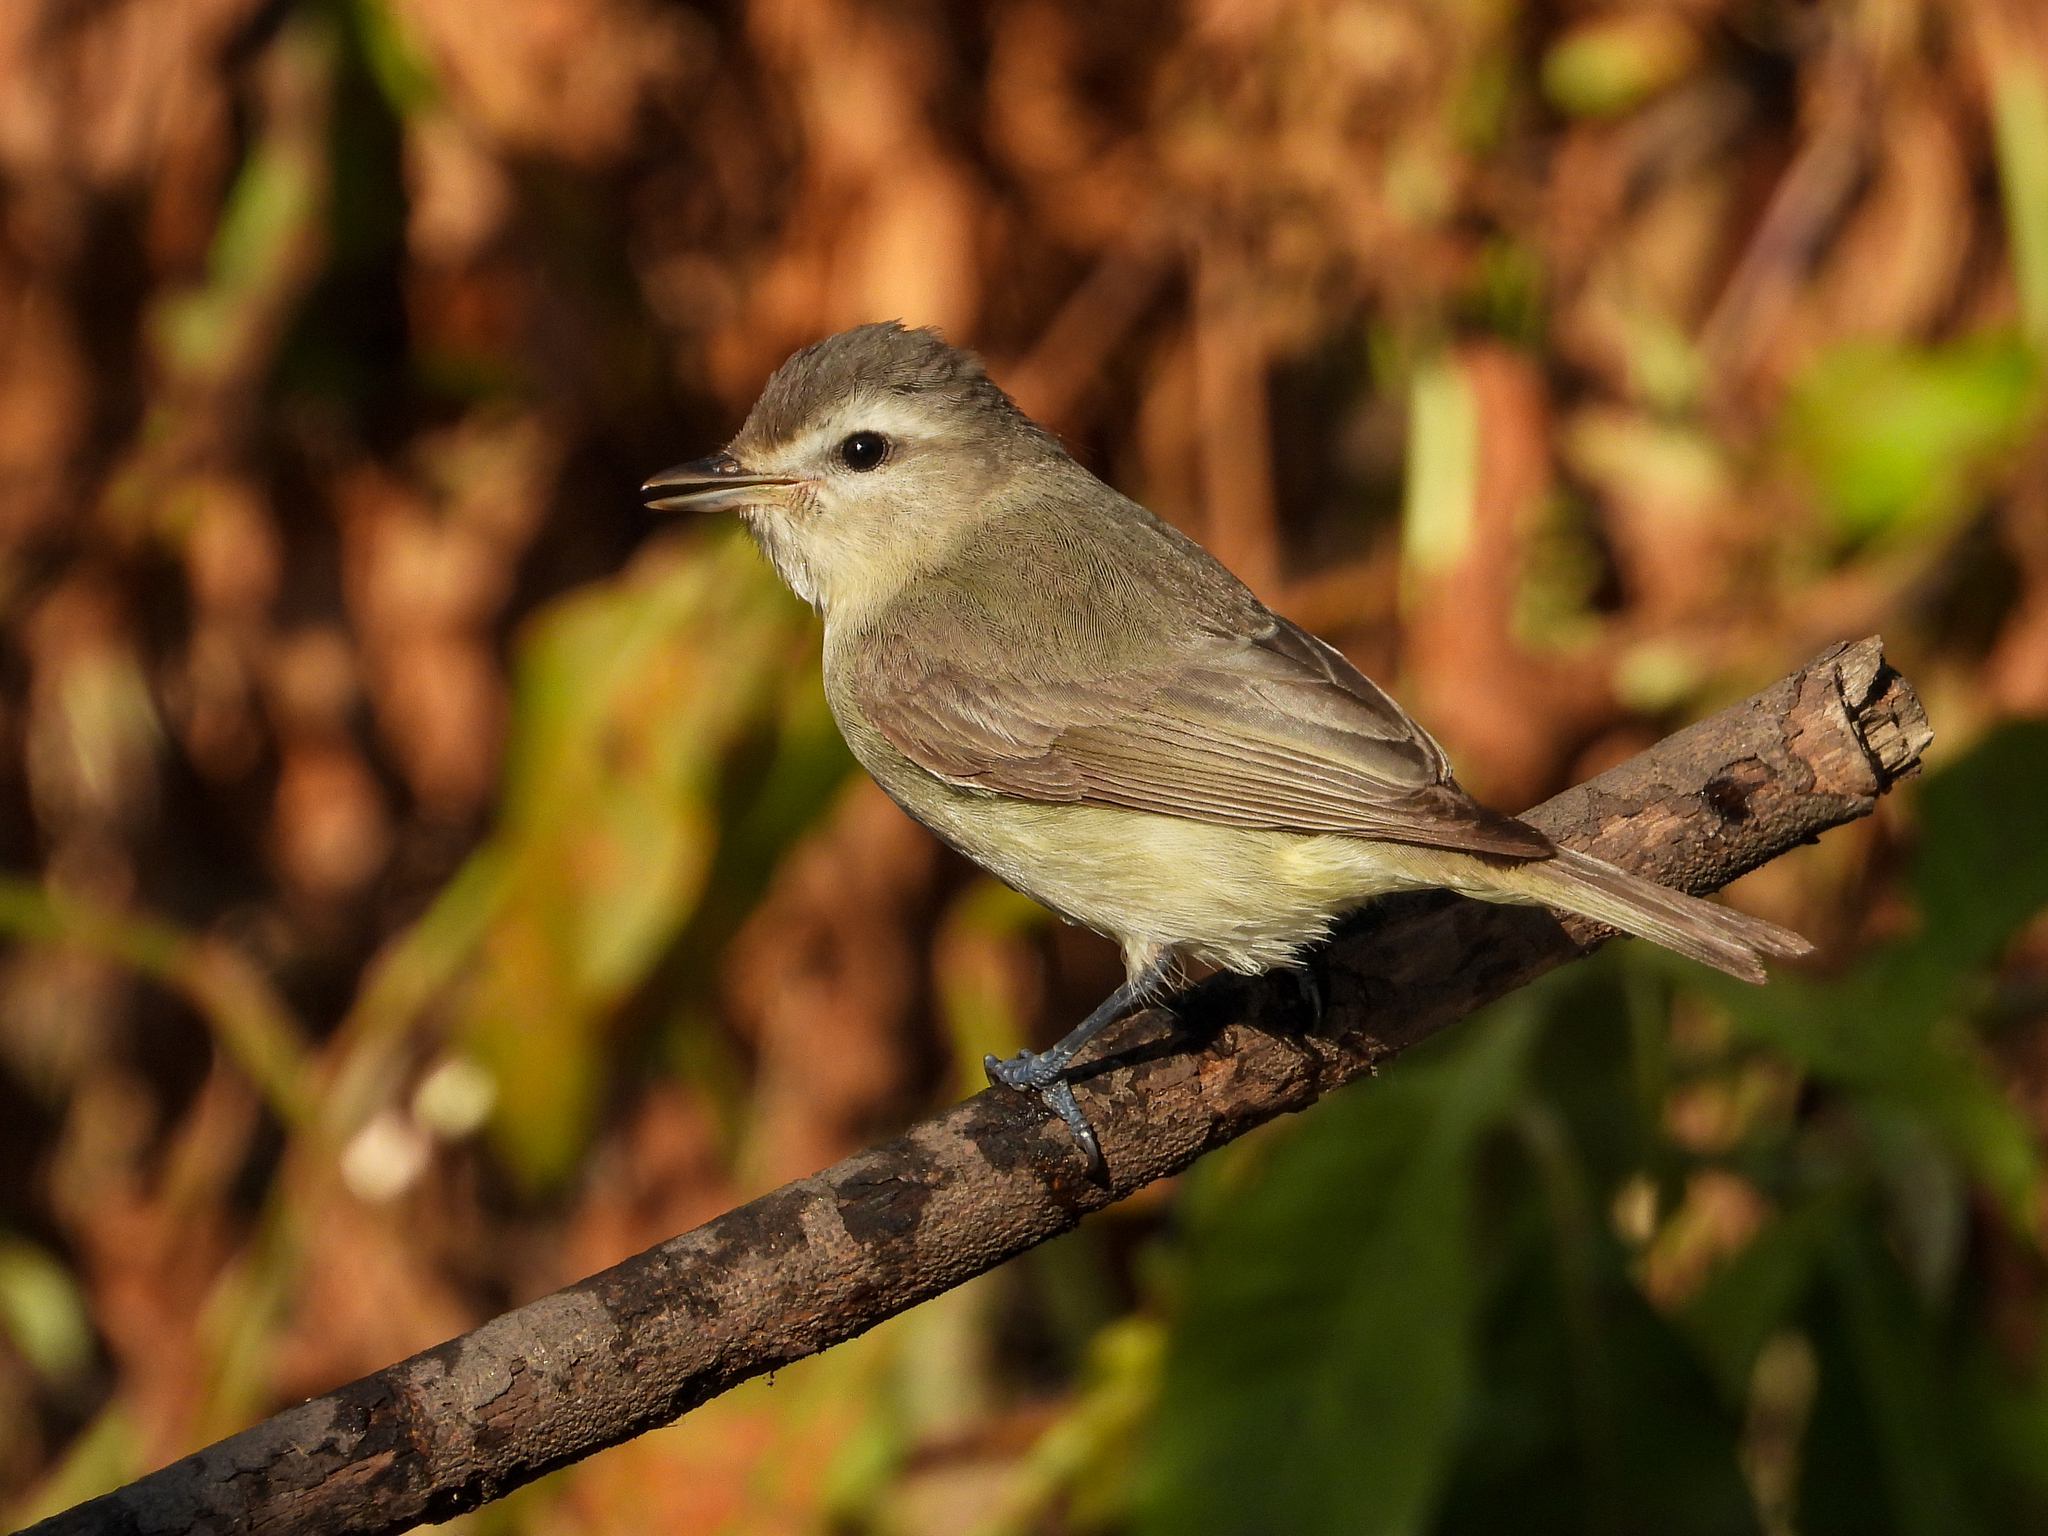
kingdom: Animalia
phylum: Chordata
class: Aves
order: Passeriformes
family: Vireonidae
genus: Vireo
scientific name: Vireo gilvus
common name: Warbling vireo
